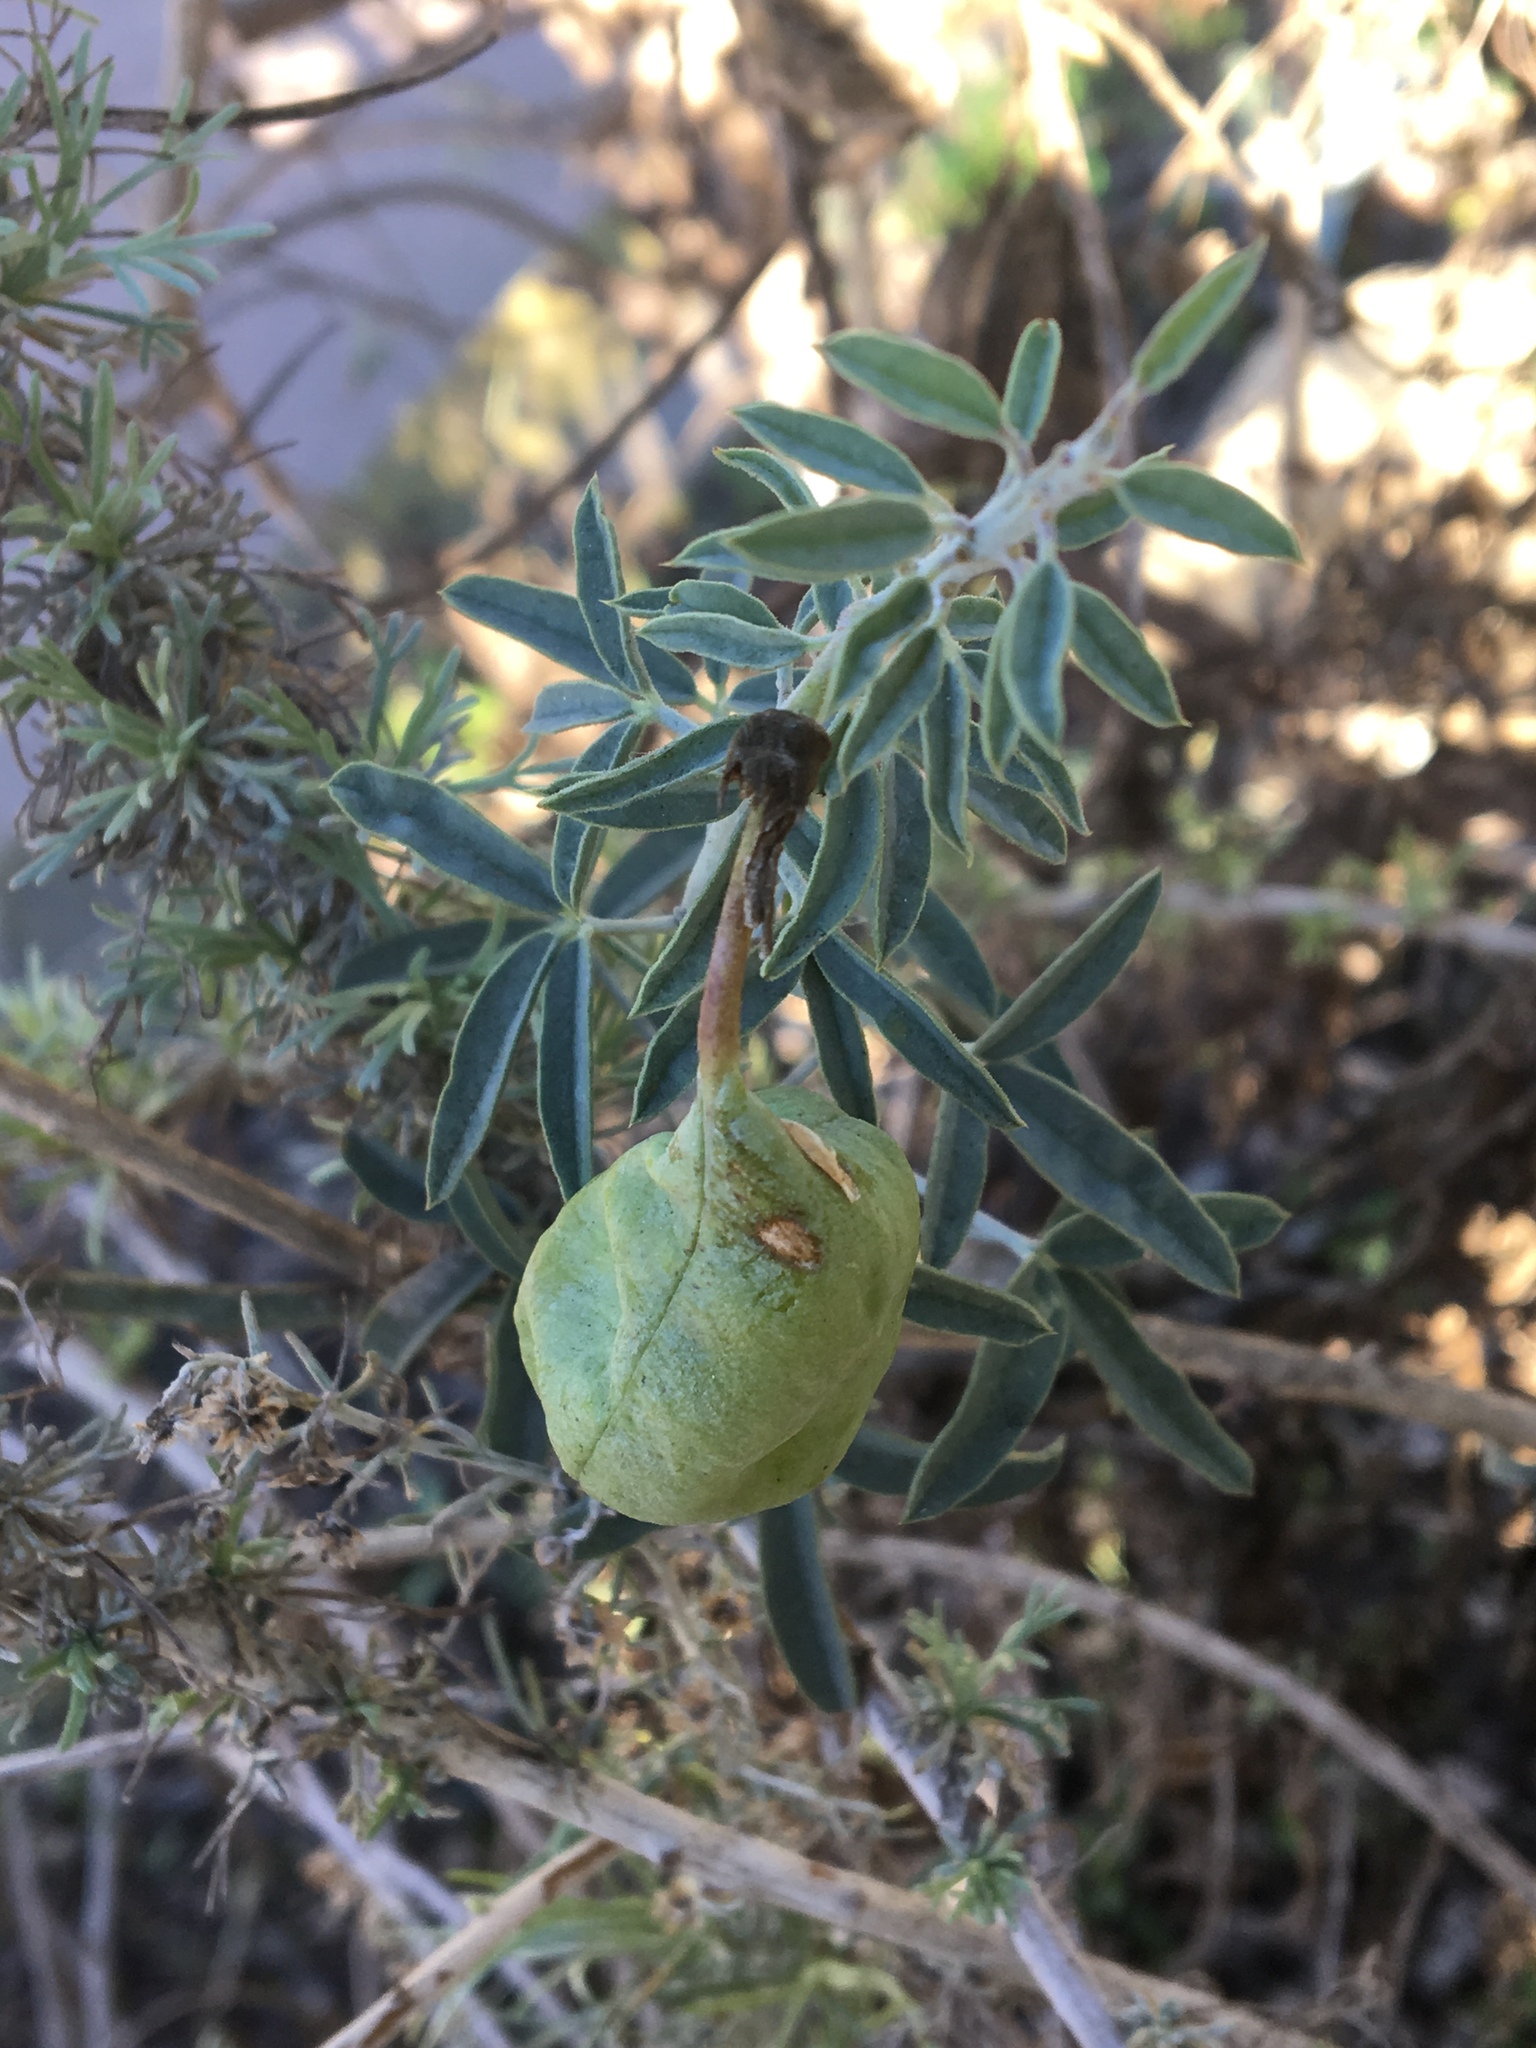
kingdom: Plantae
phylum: Tracheophyta
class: Magnoliopsida
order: Brassicales
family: Cleomaceae
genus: Cleomella
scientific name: Cleomella arborea
